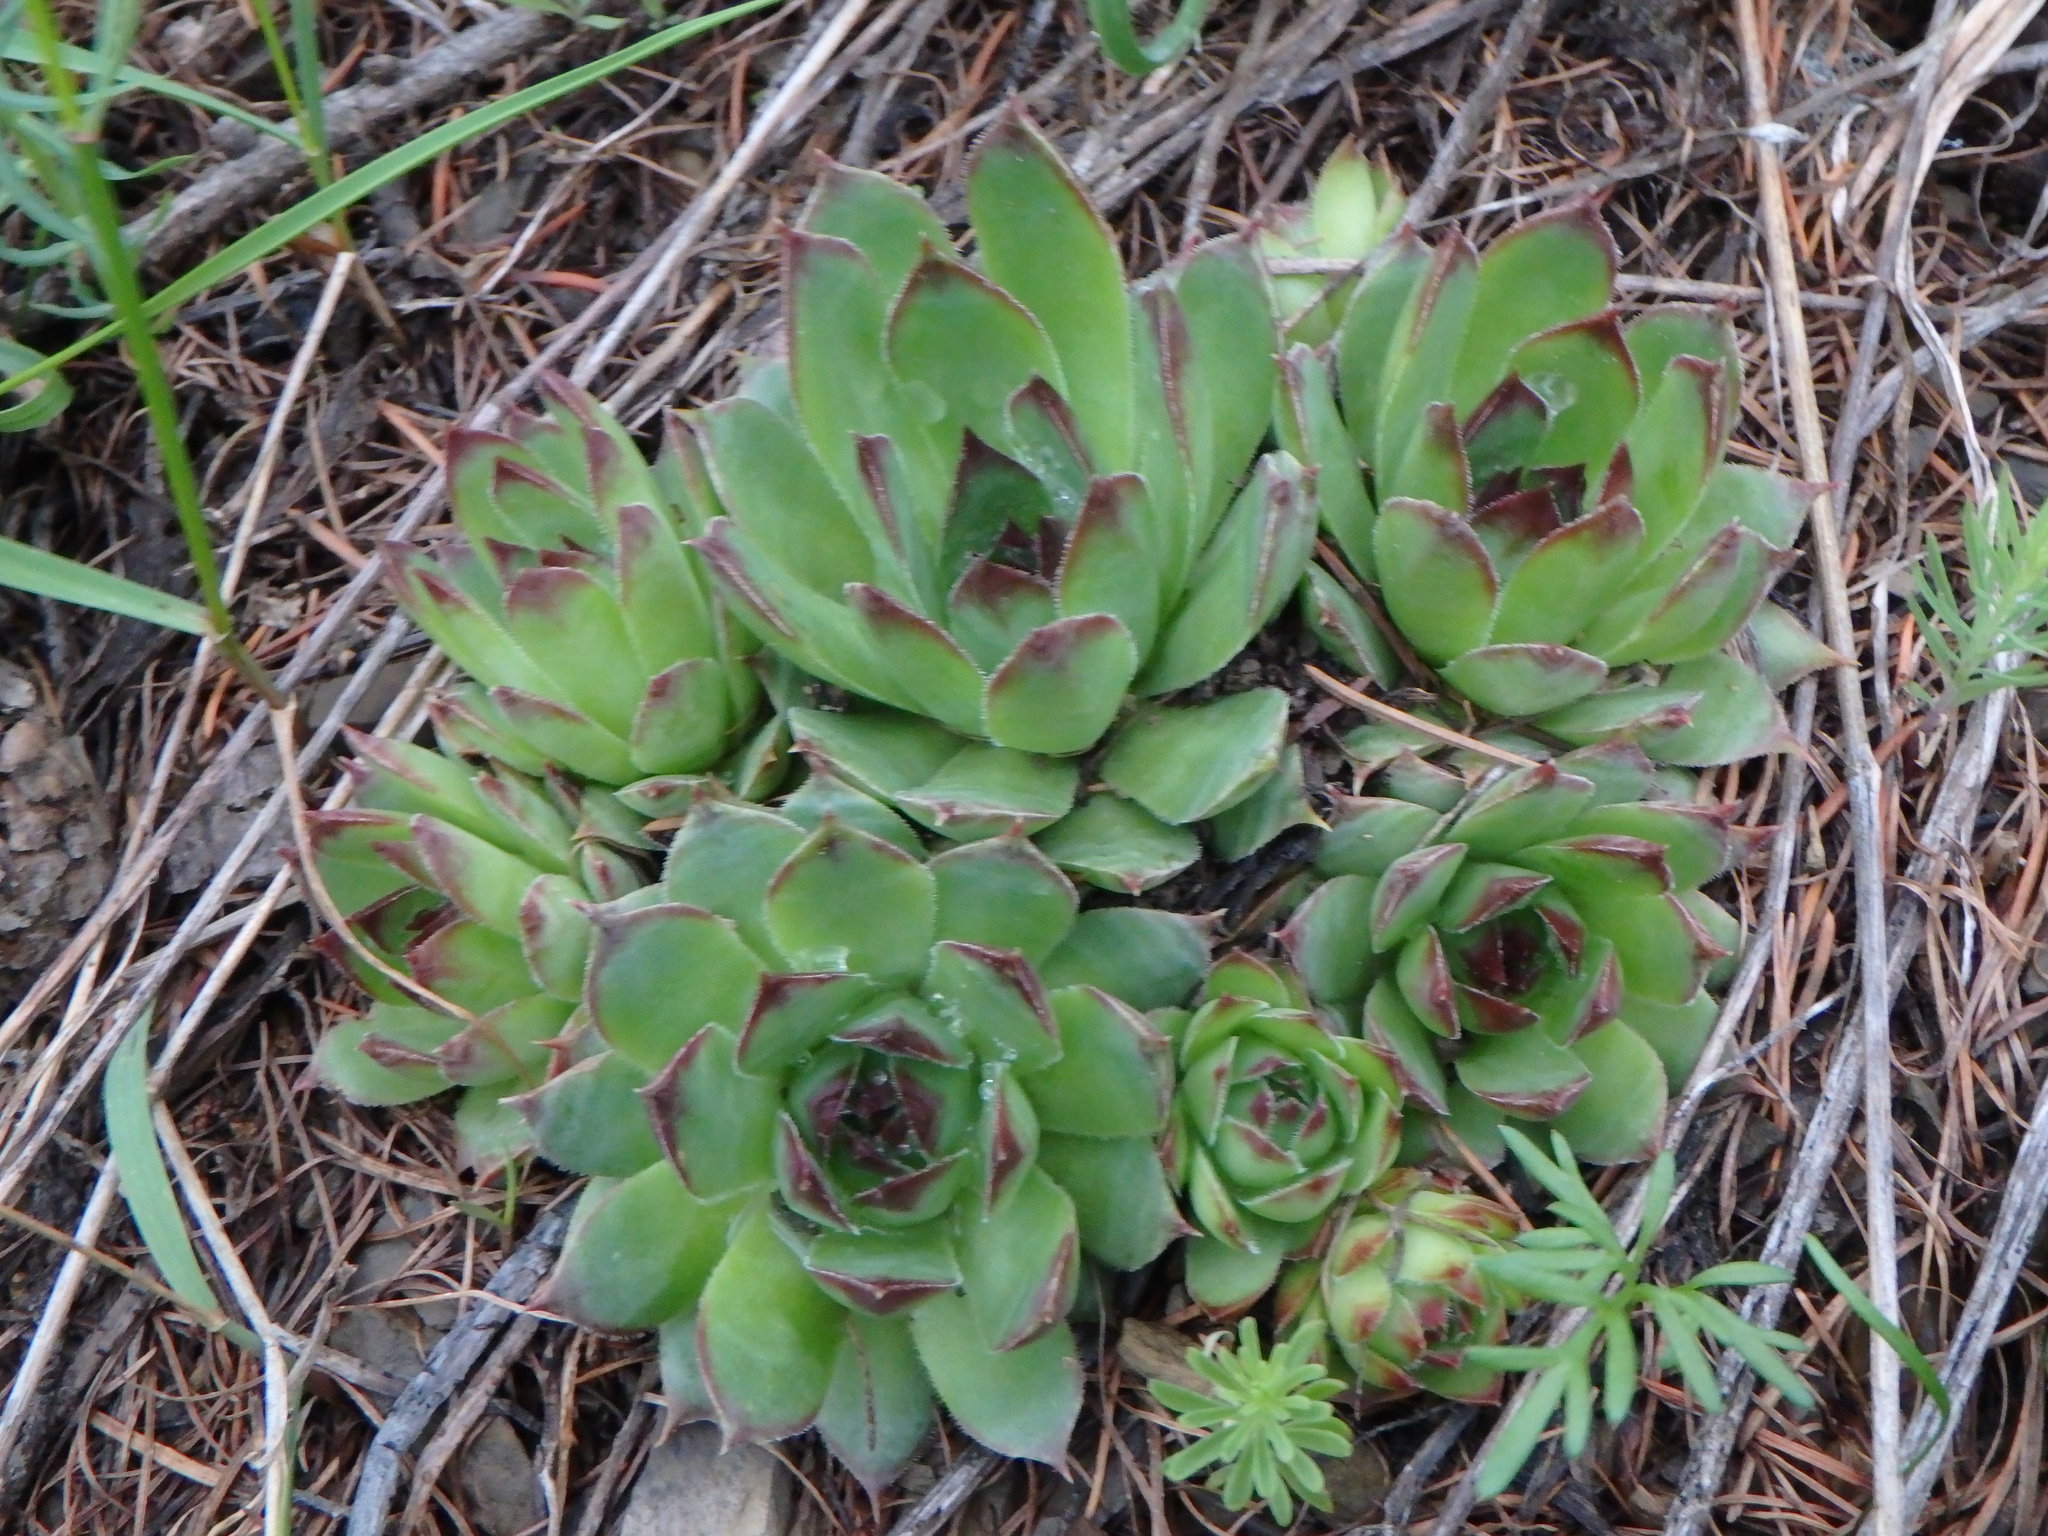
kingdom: Plantae
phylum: Tracheophyta
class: Magnoliopsida
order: Saxifragales
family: Crassulaceae
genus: Sempervivum
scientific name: Sempervivum tectorum
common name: House-leek
